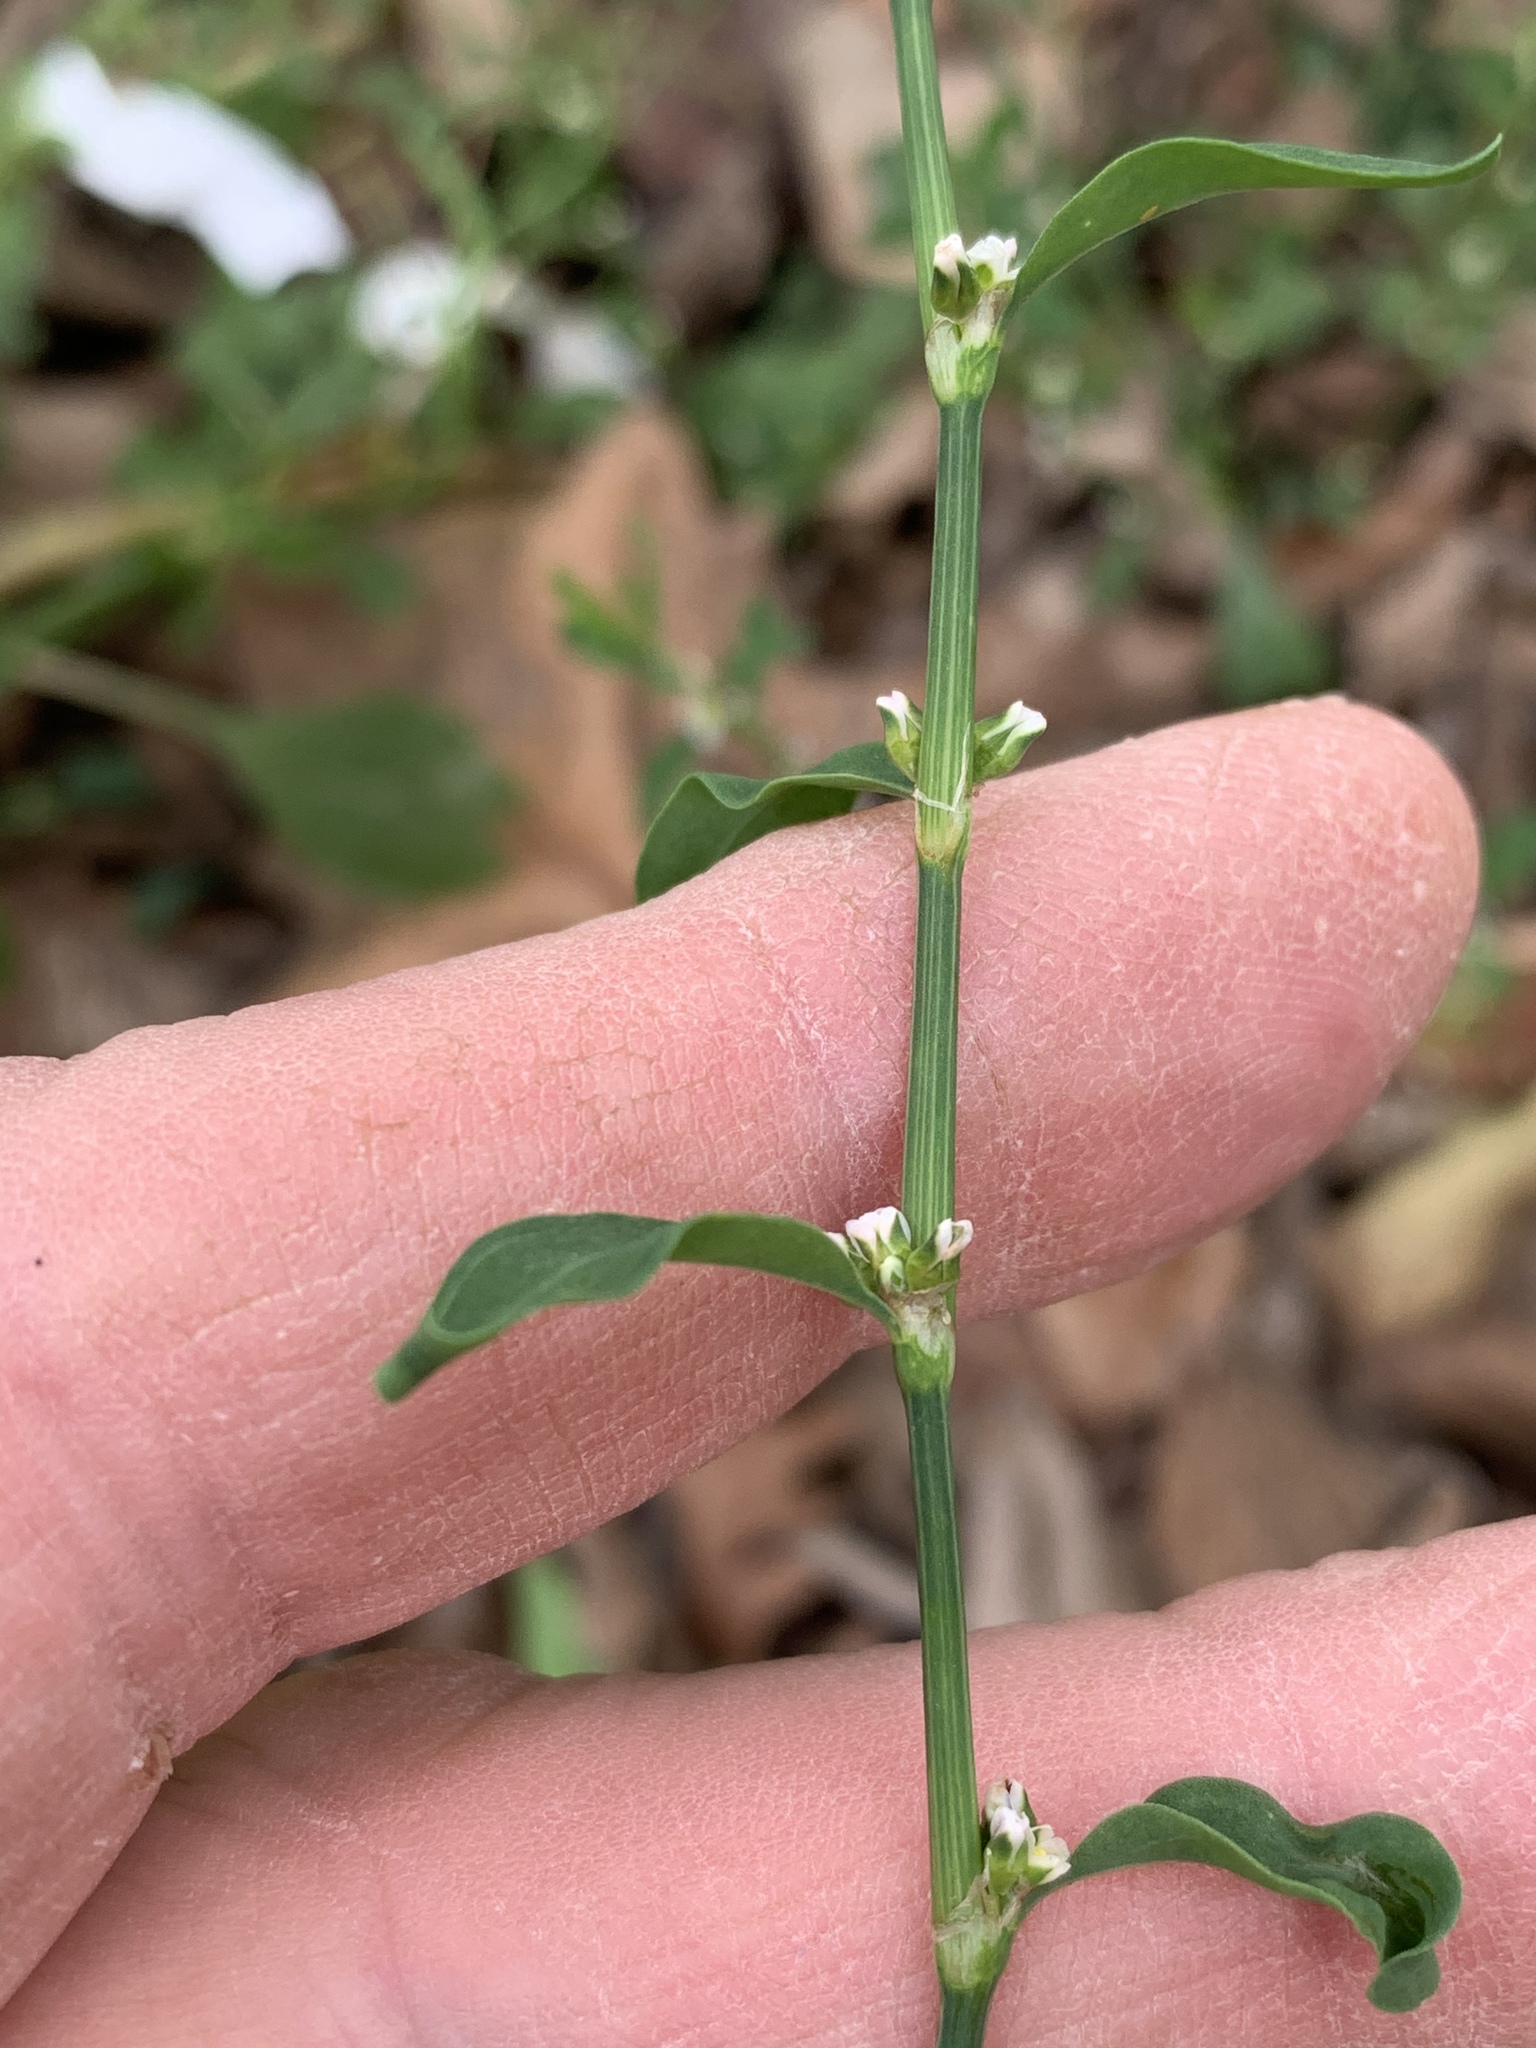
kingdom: Plantae
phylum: Tracheophyta
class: Magnoliopsida
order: Caryophyllales
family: Polygonaceae
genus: Polygonum
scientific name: Polygonum aviculare
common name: Prostrate knotweed
